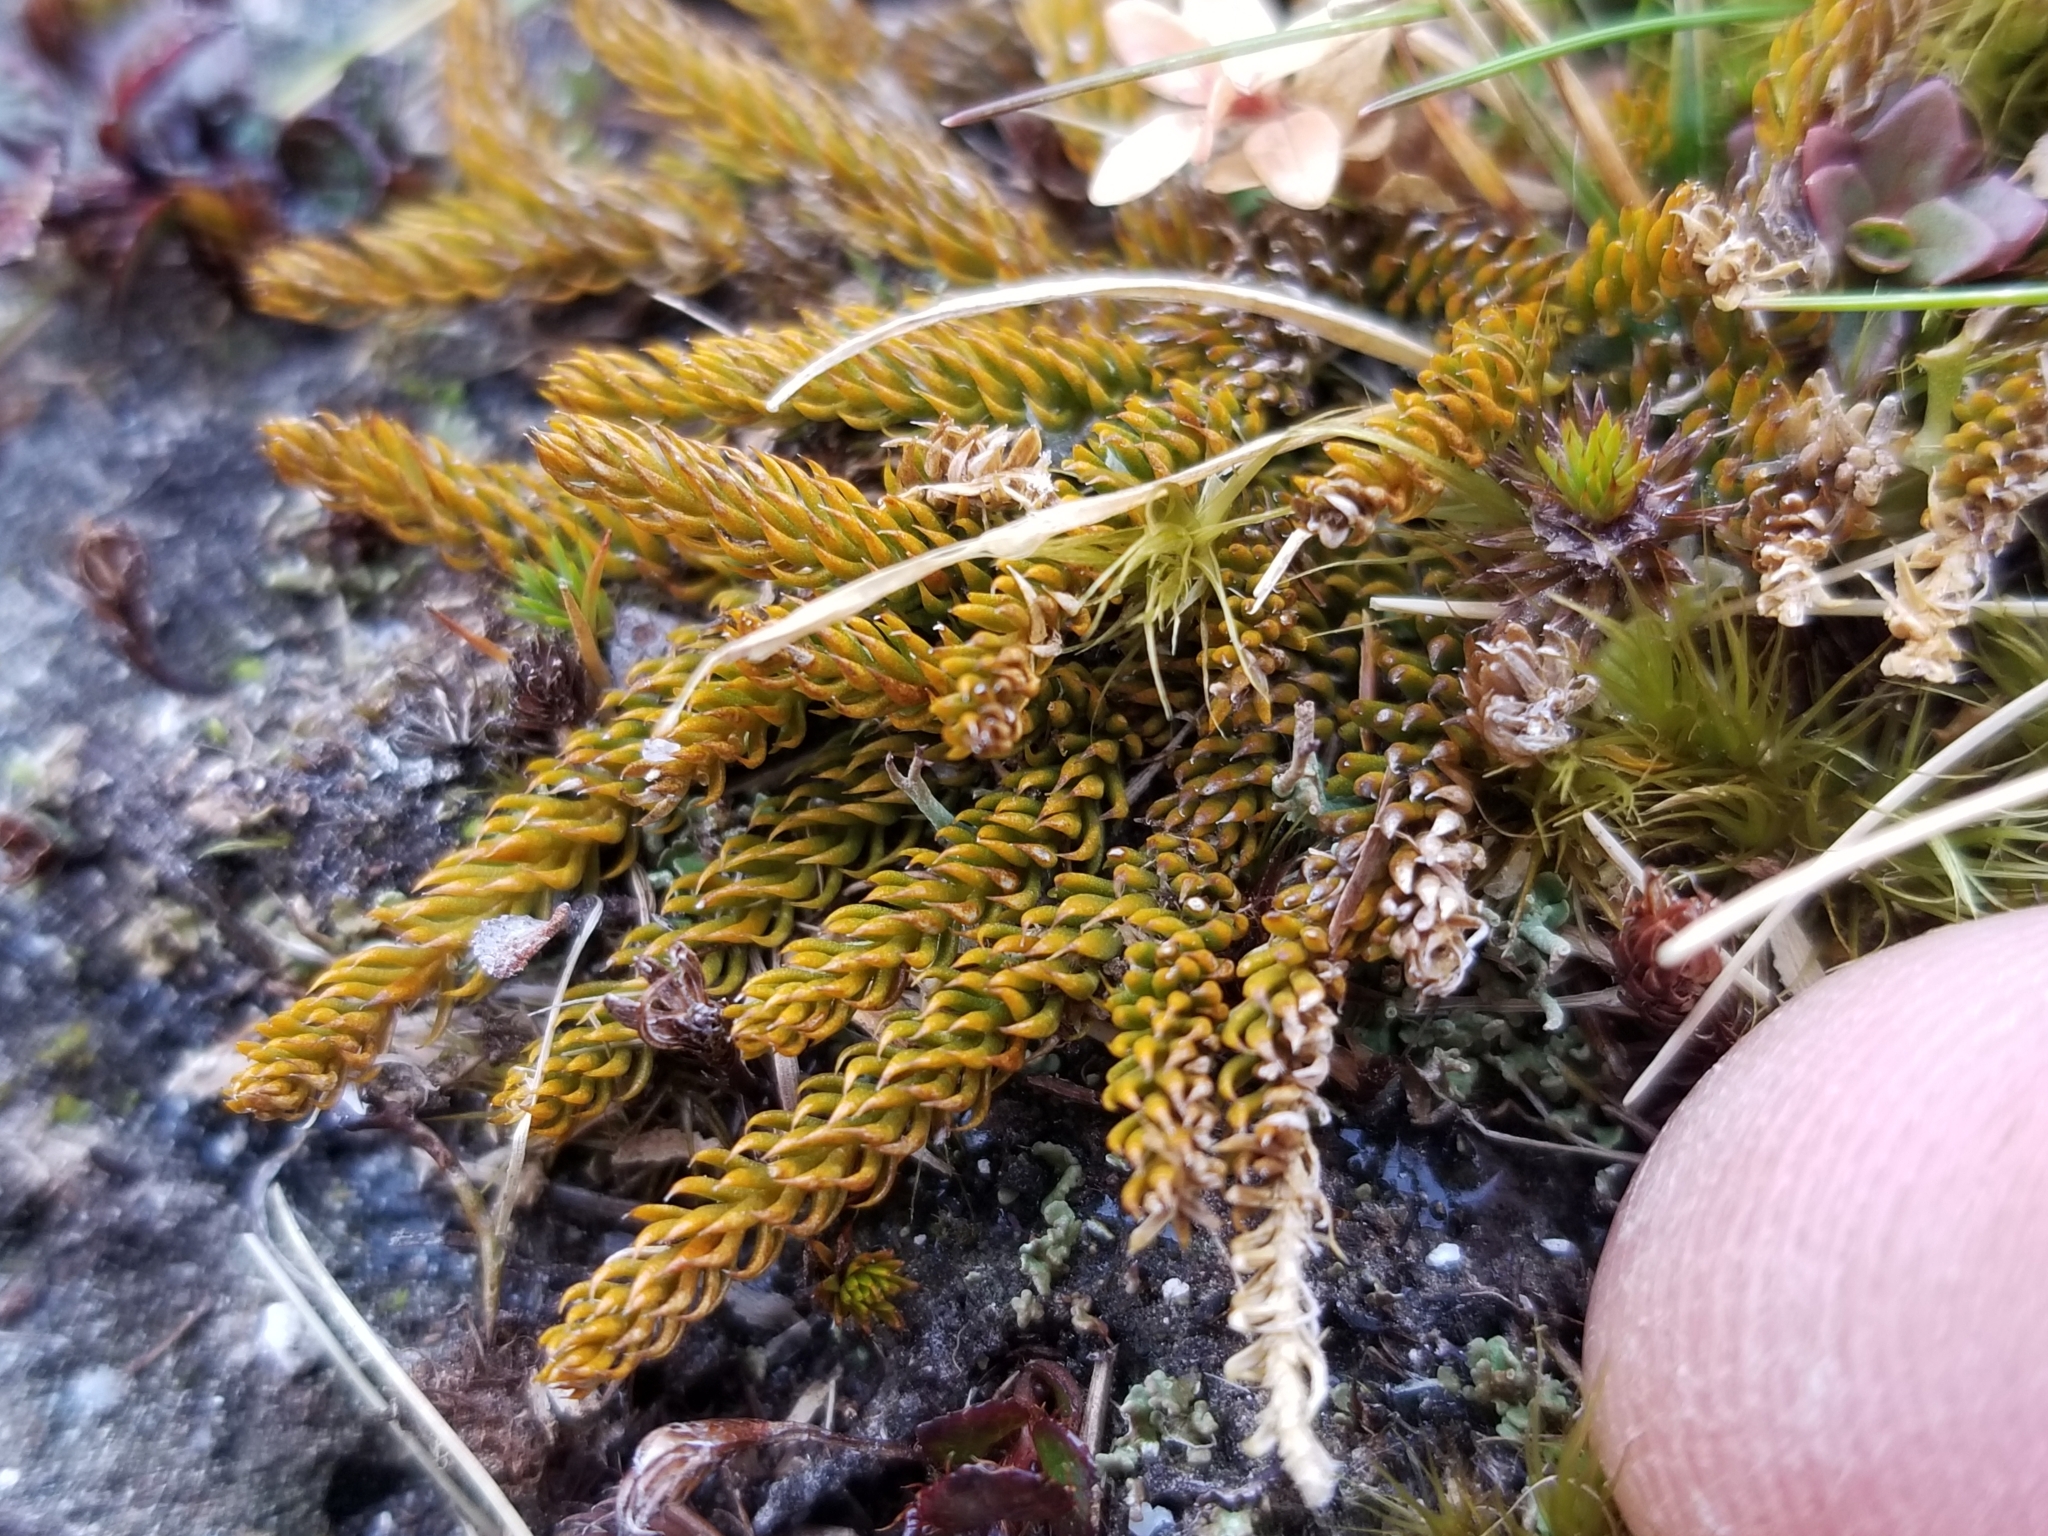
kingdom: Plantae
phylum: Tracheophyta
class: Lycopodiopsida
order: Lycopodiales
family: Lycopodiaceae
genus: Lateristachys
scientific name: Lateristachys diffusa
